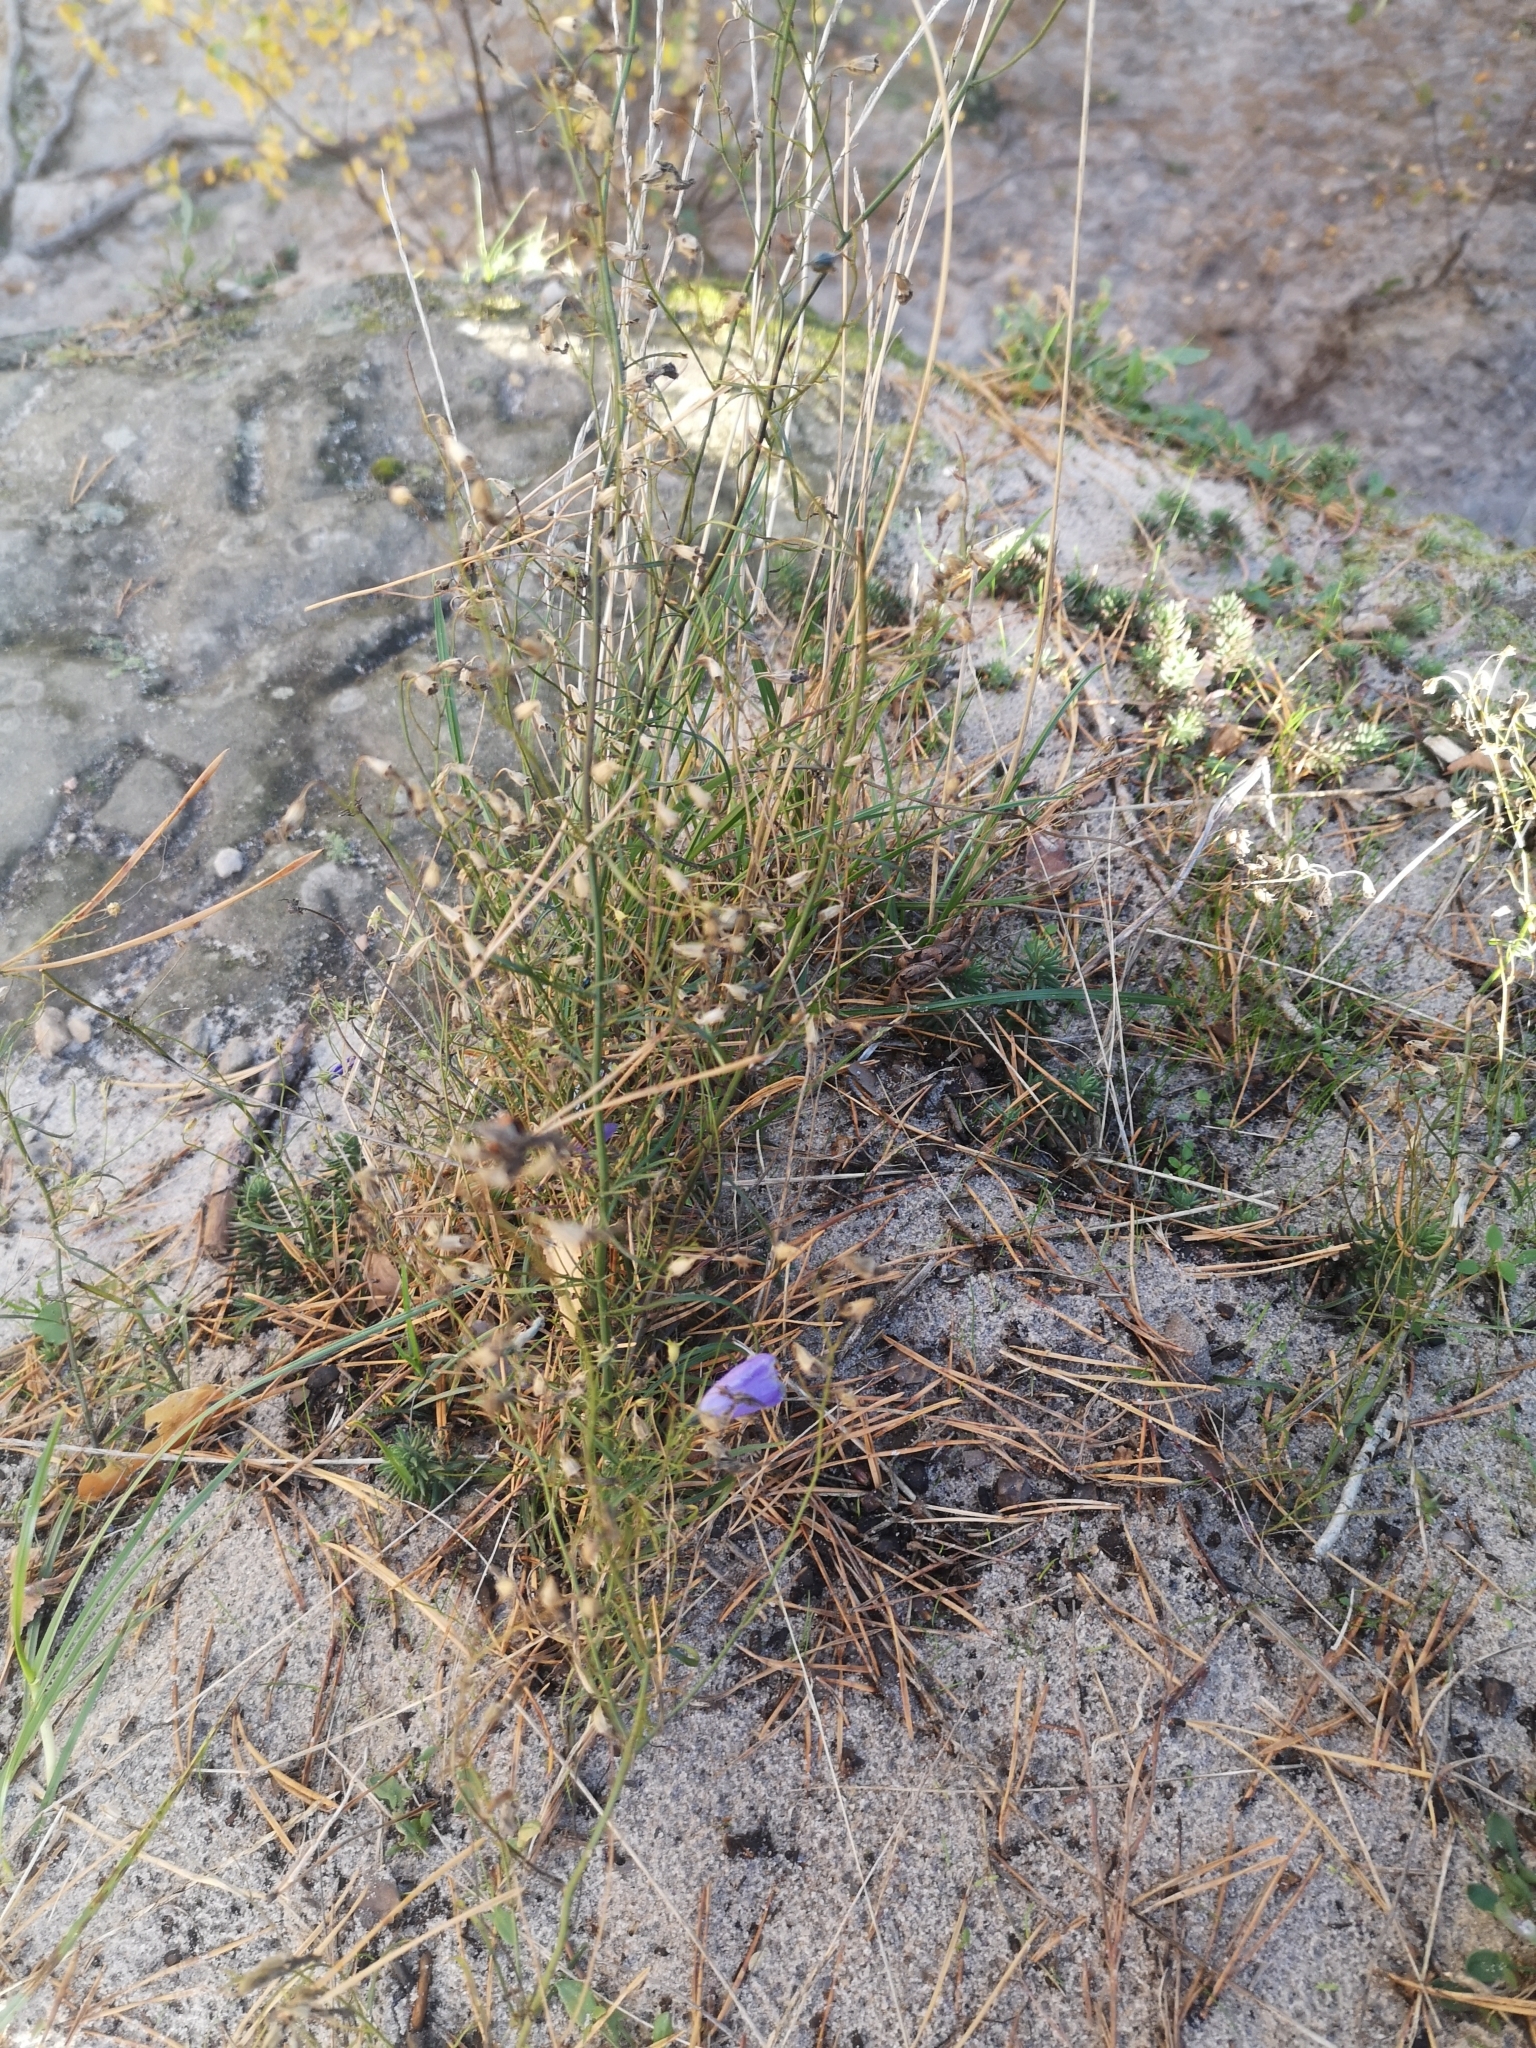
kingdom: Plantae
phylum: Tracheophyta
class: Magnoliopsida
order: Asterales
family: Campanulaceae
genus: Campanula
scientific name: Campanula rotundifolia
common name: Harebell
